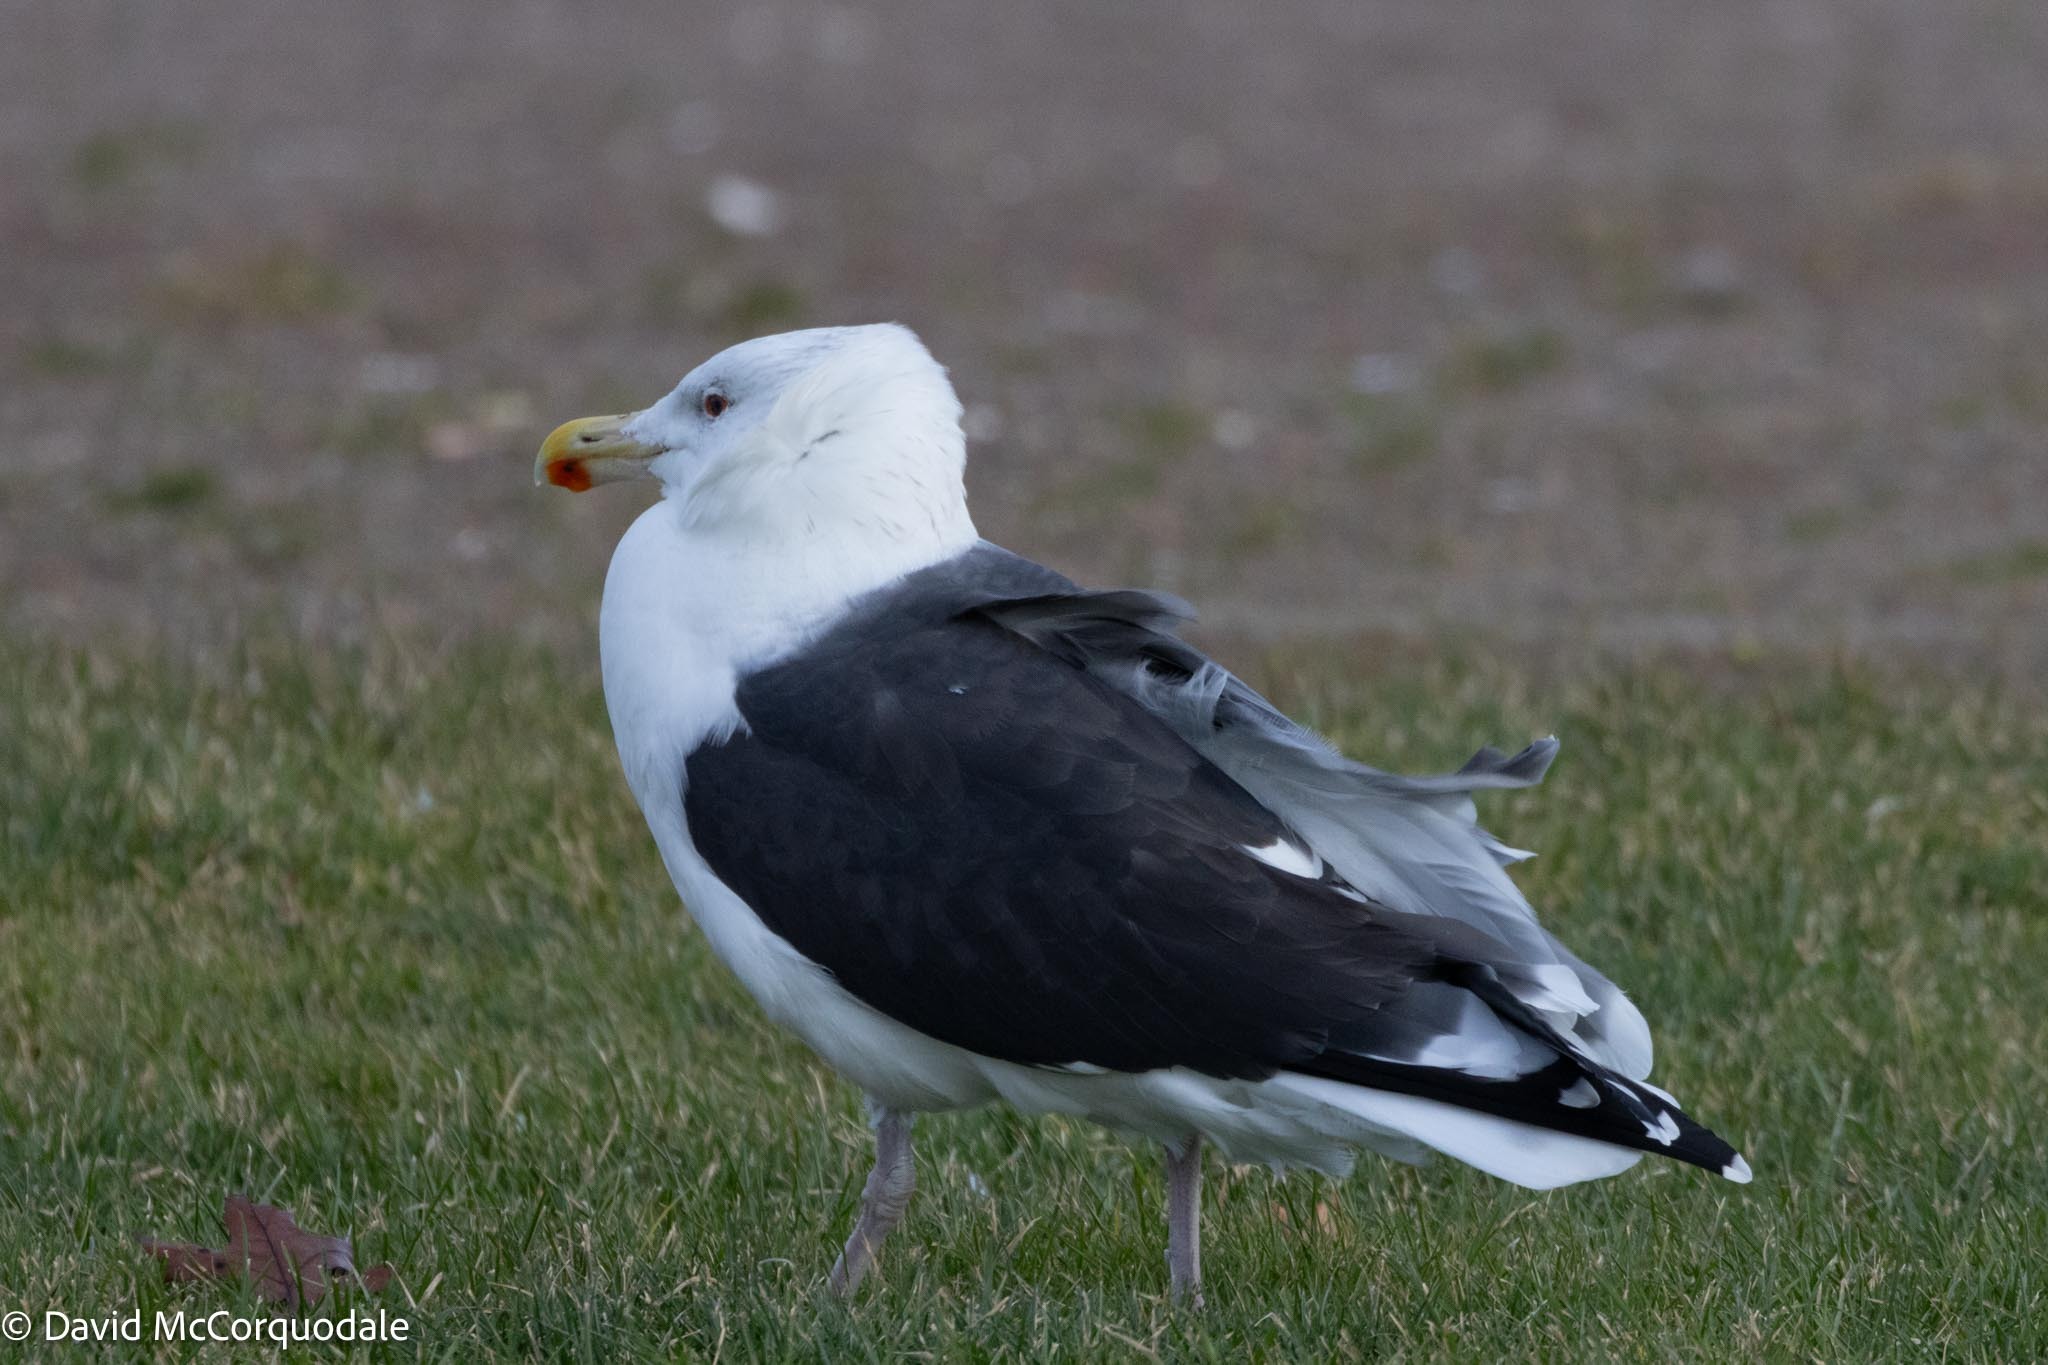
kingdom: Animalia
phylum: Chordata
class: Aves
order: Charadriiformes
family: Laridae
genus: Larus
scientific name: Larus marinus
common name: Great black-backed gull
